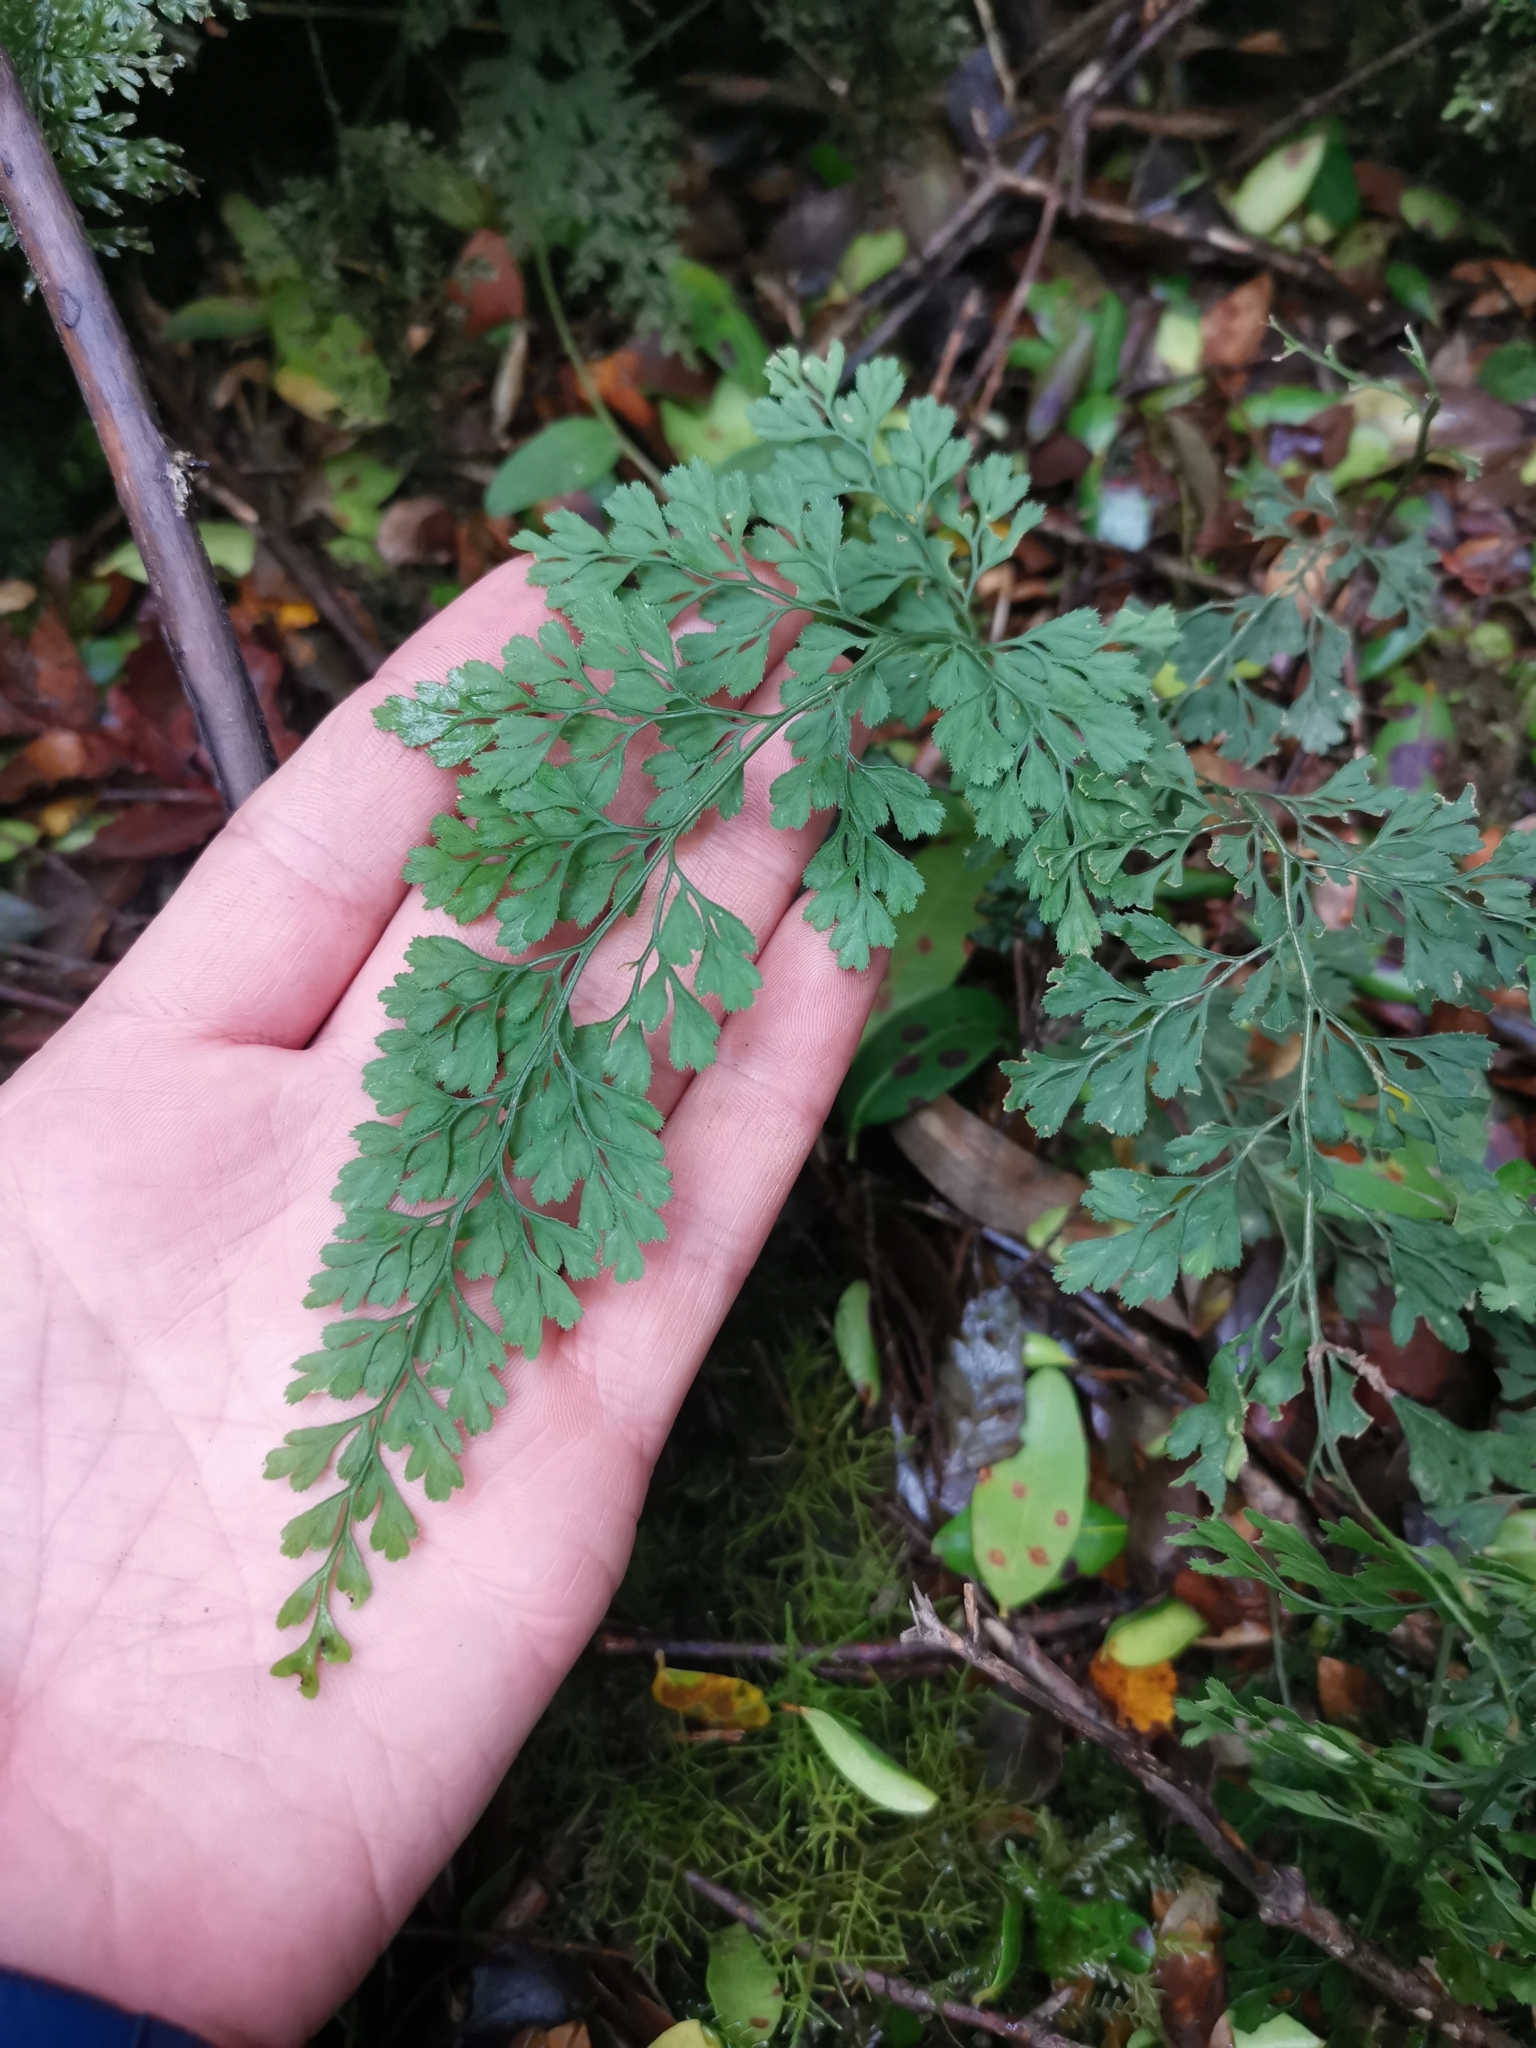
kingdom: Plantae
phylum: Tracheophyta
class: Polypodiopsida
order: Polypodiales
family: Aspleniaceae
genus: Asplenium
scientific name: Asplenium dareoides
